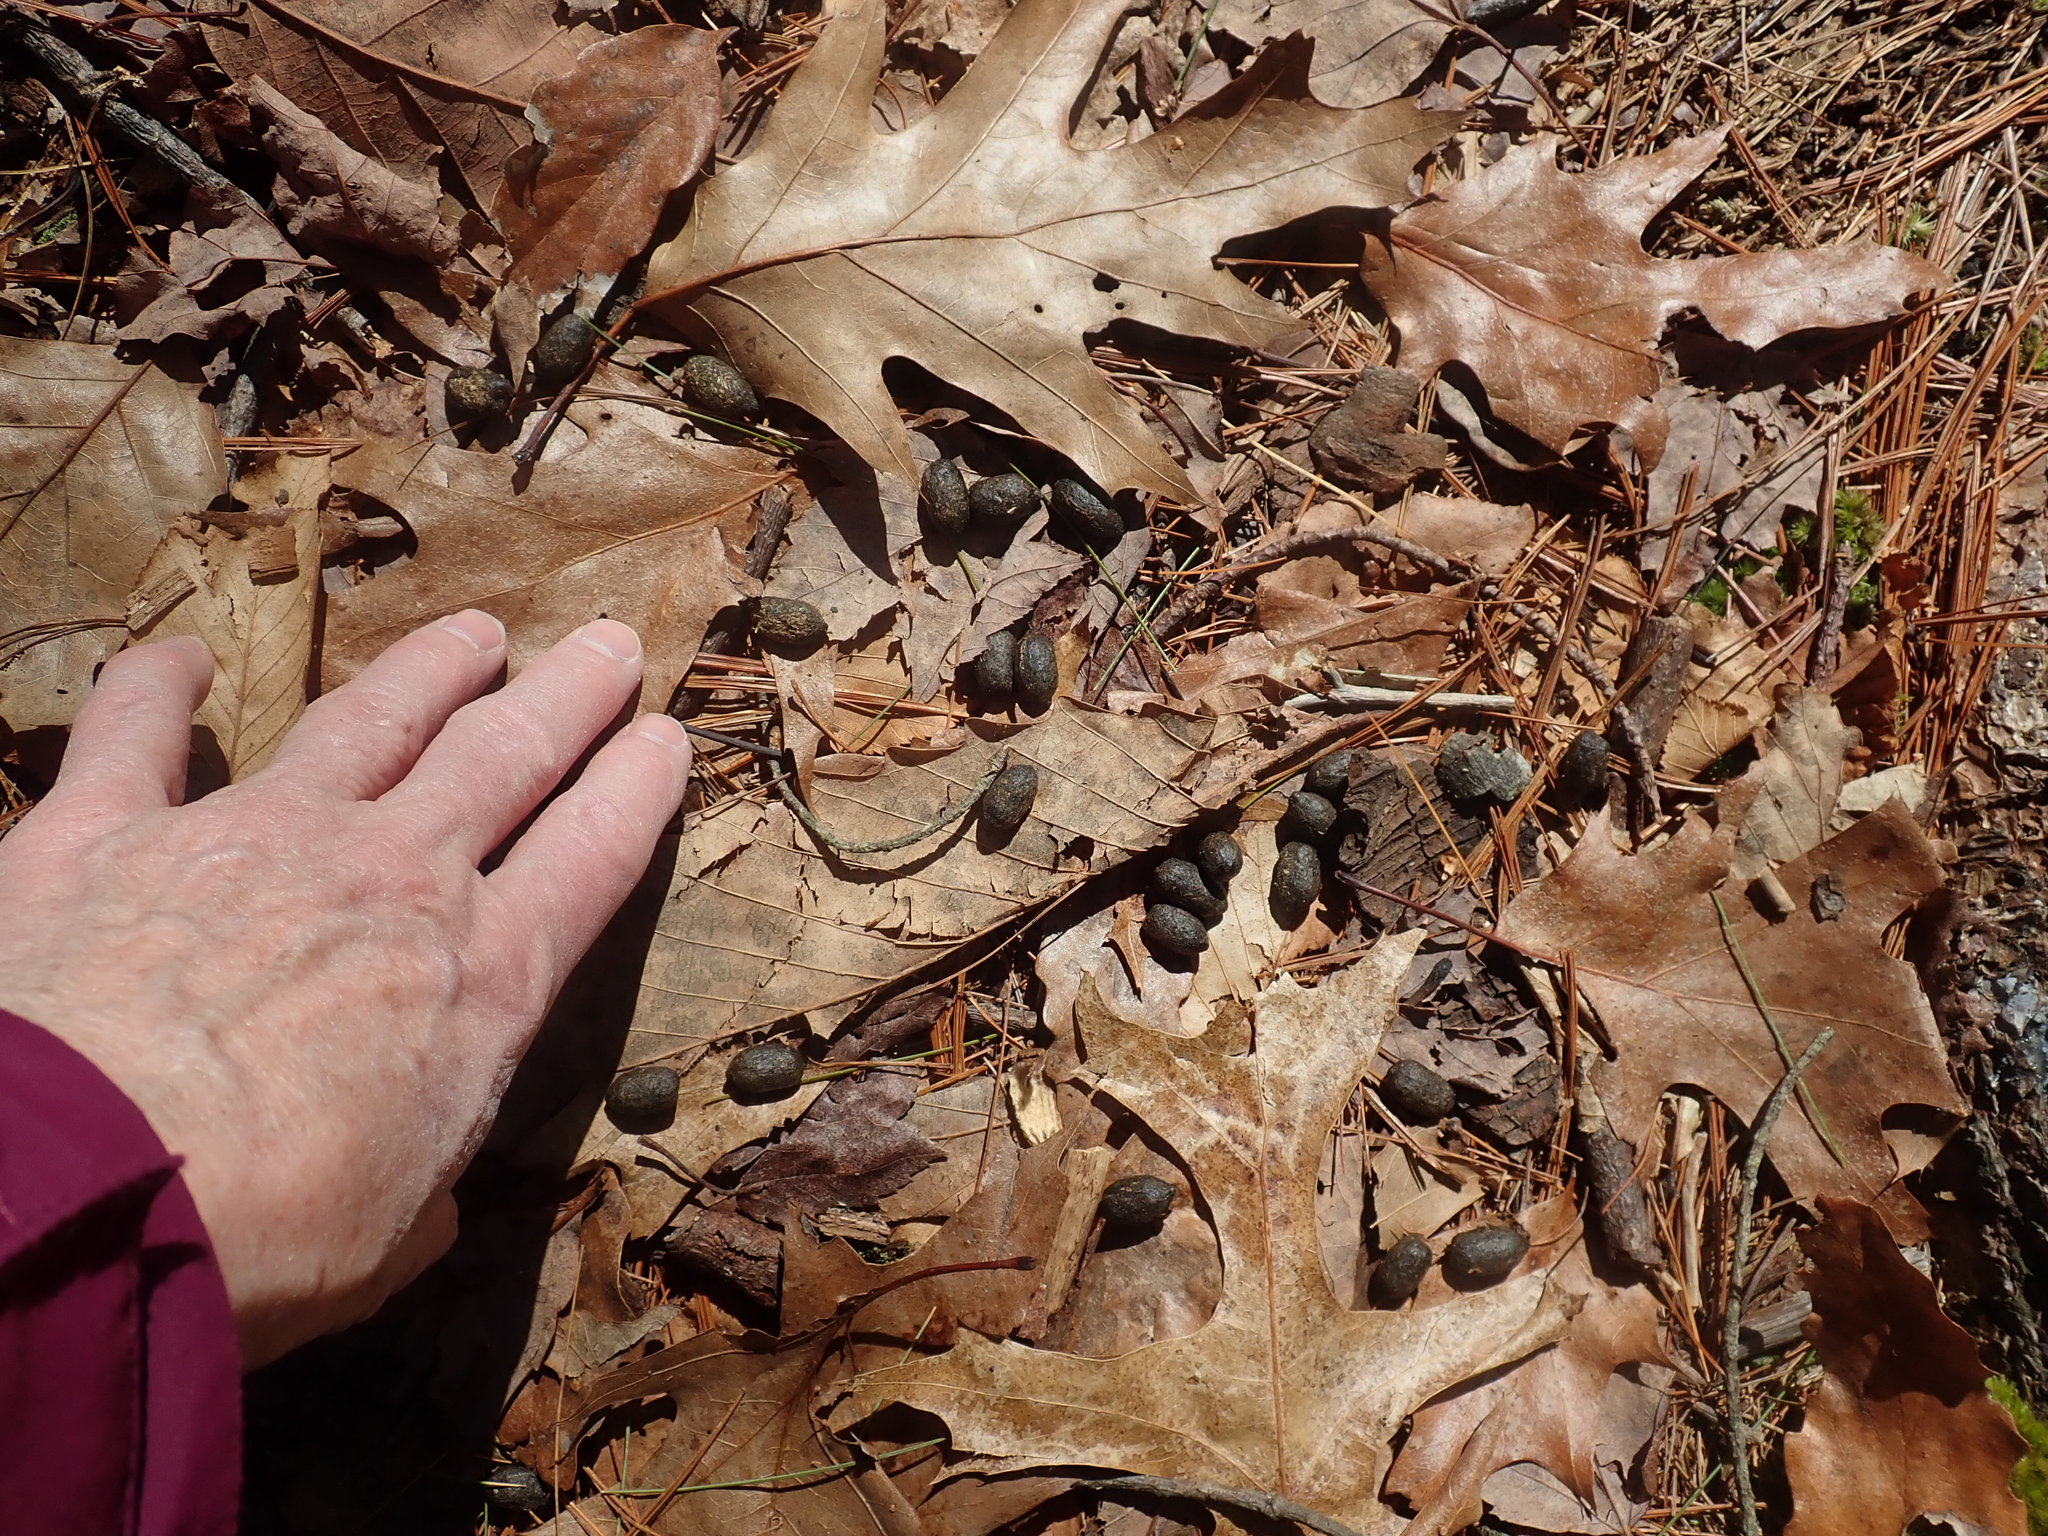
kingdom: Animalia
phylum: Chordata
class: Mammalia
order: Artiodactyla
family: Cervidae
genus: Odocoileus
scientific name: Odocoileus virginianus
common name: White-tailed deer
